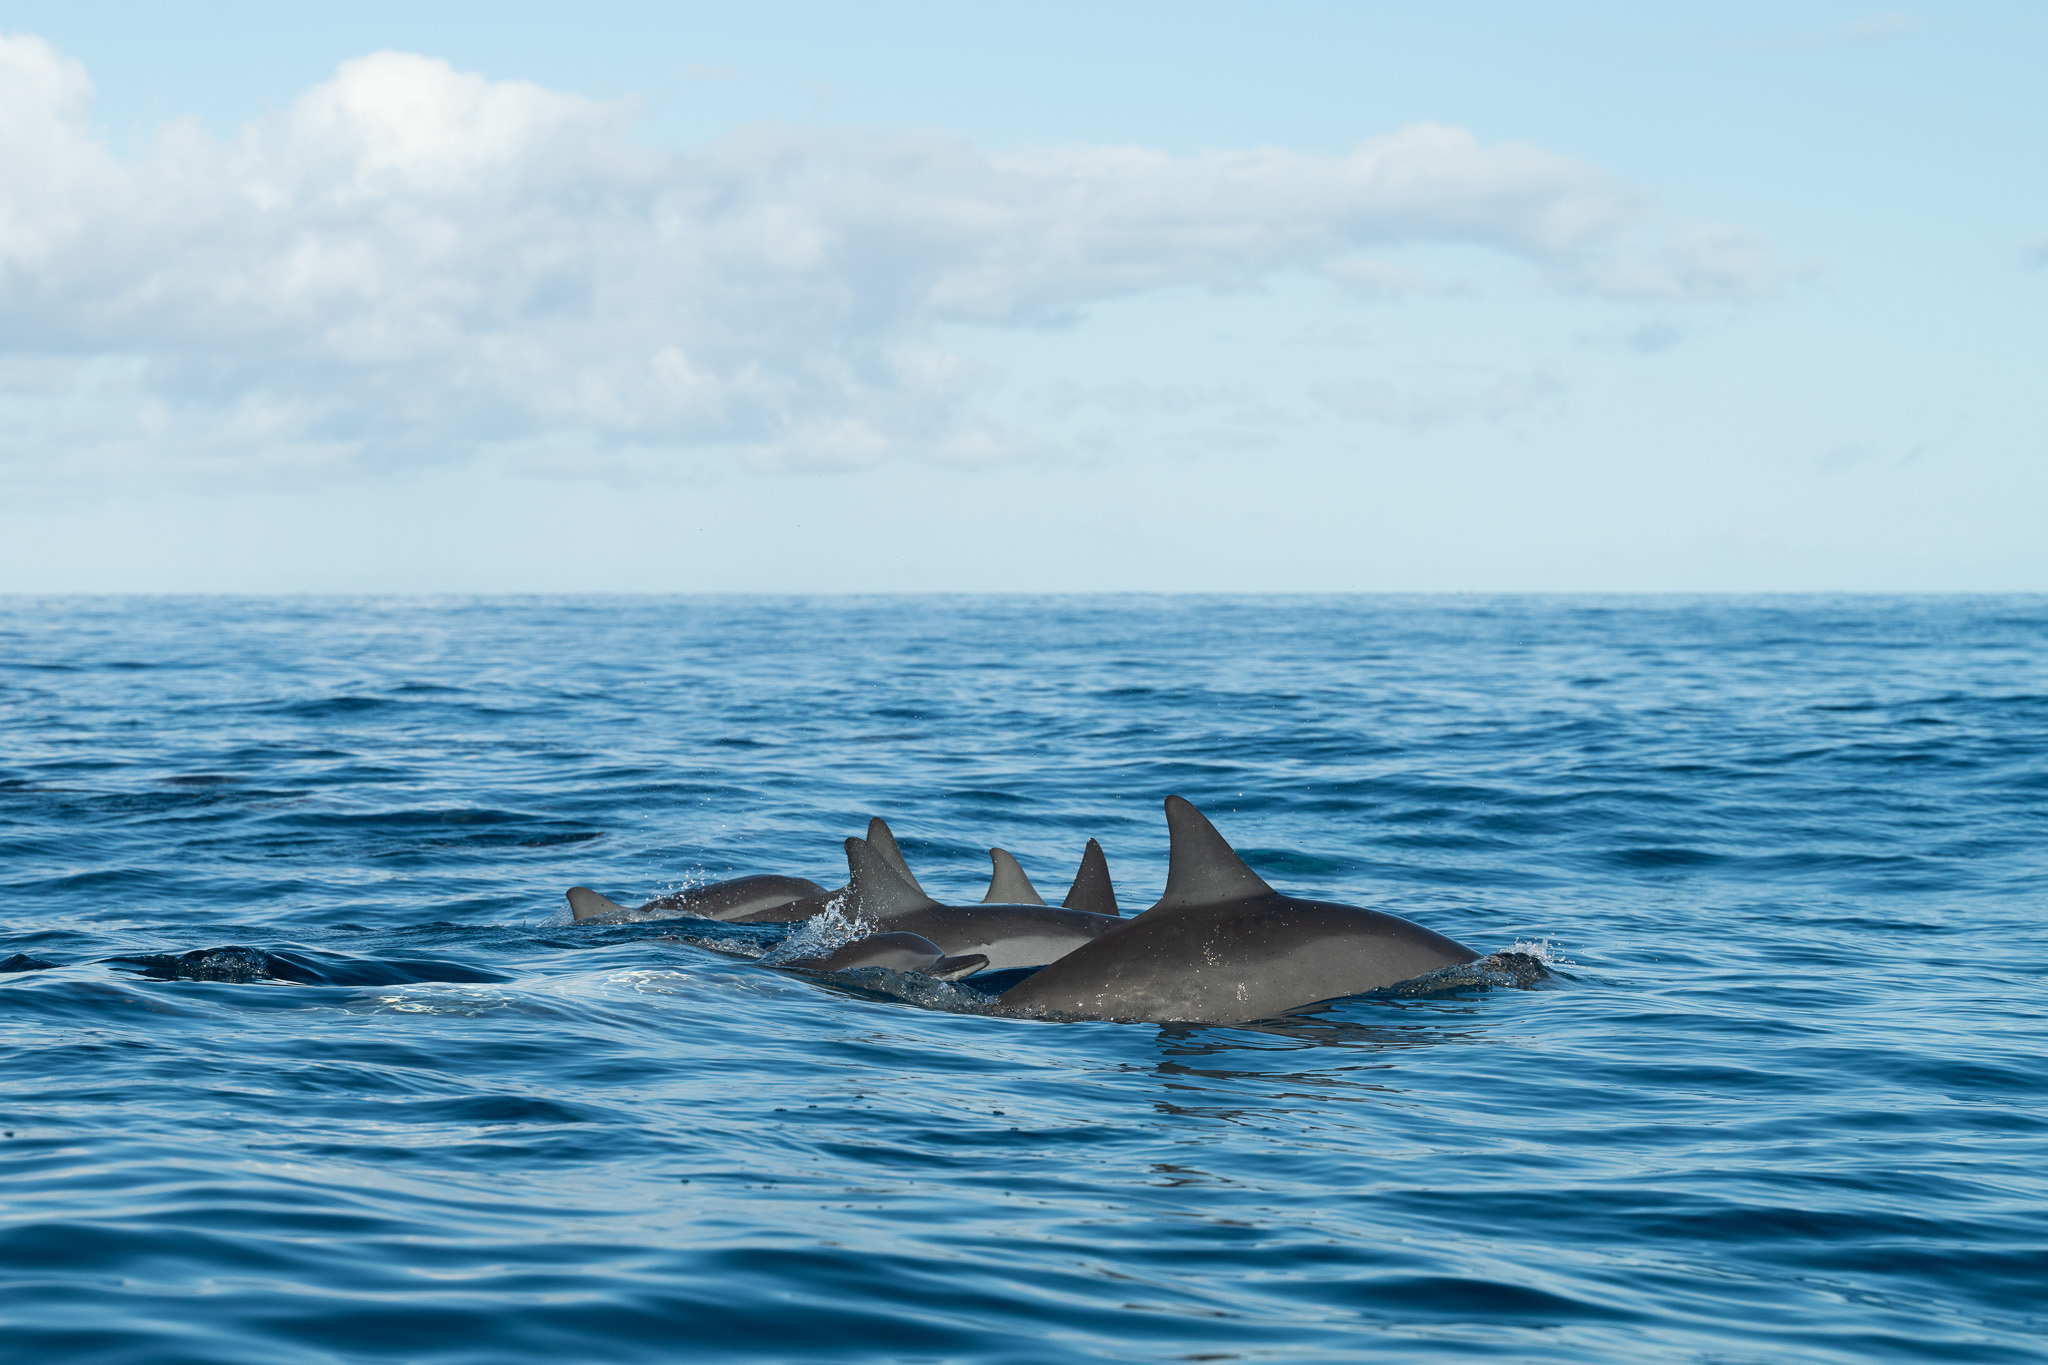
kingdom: Animalia
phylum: Chordata
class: Mammalia
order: Cetacea
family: Delphinidae
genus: Stenella
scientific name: Stenella longirostris
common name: Spinner dolphin
